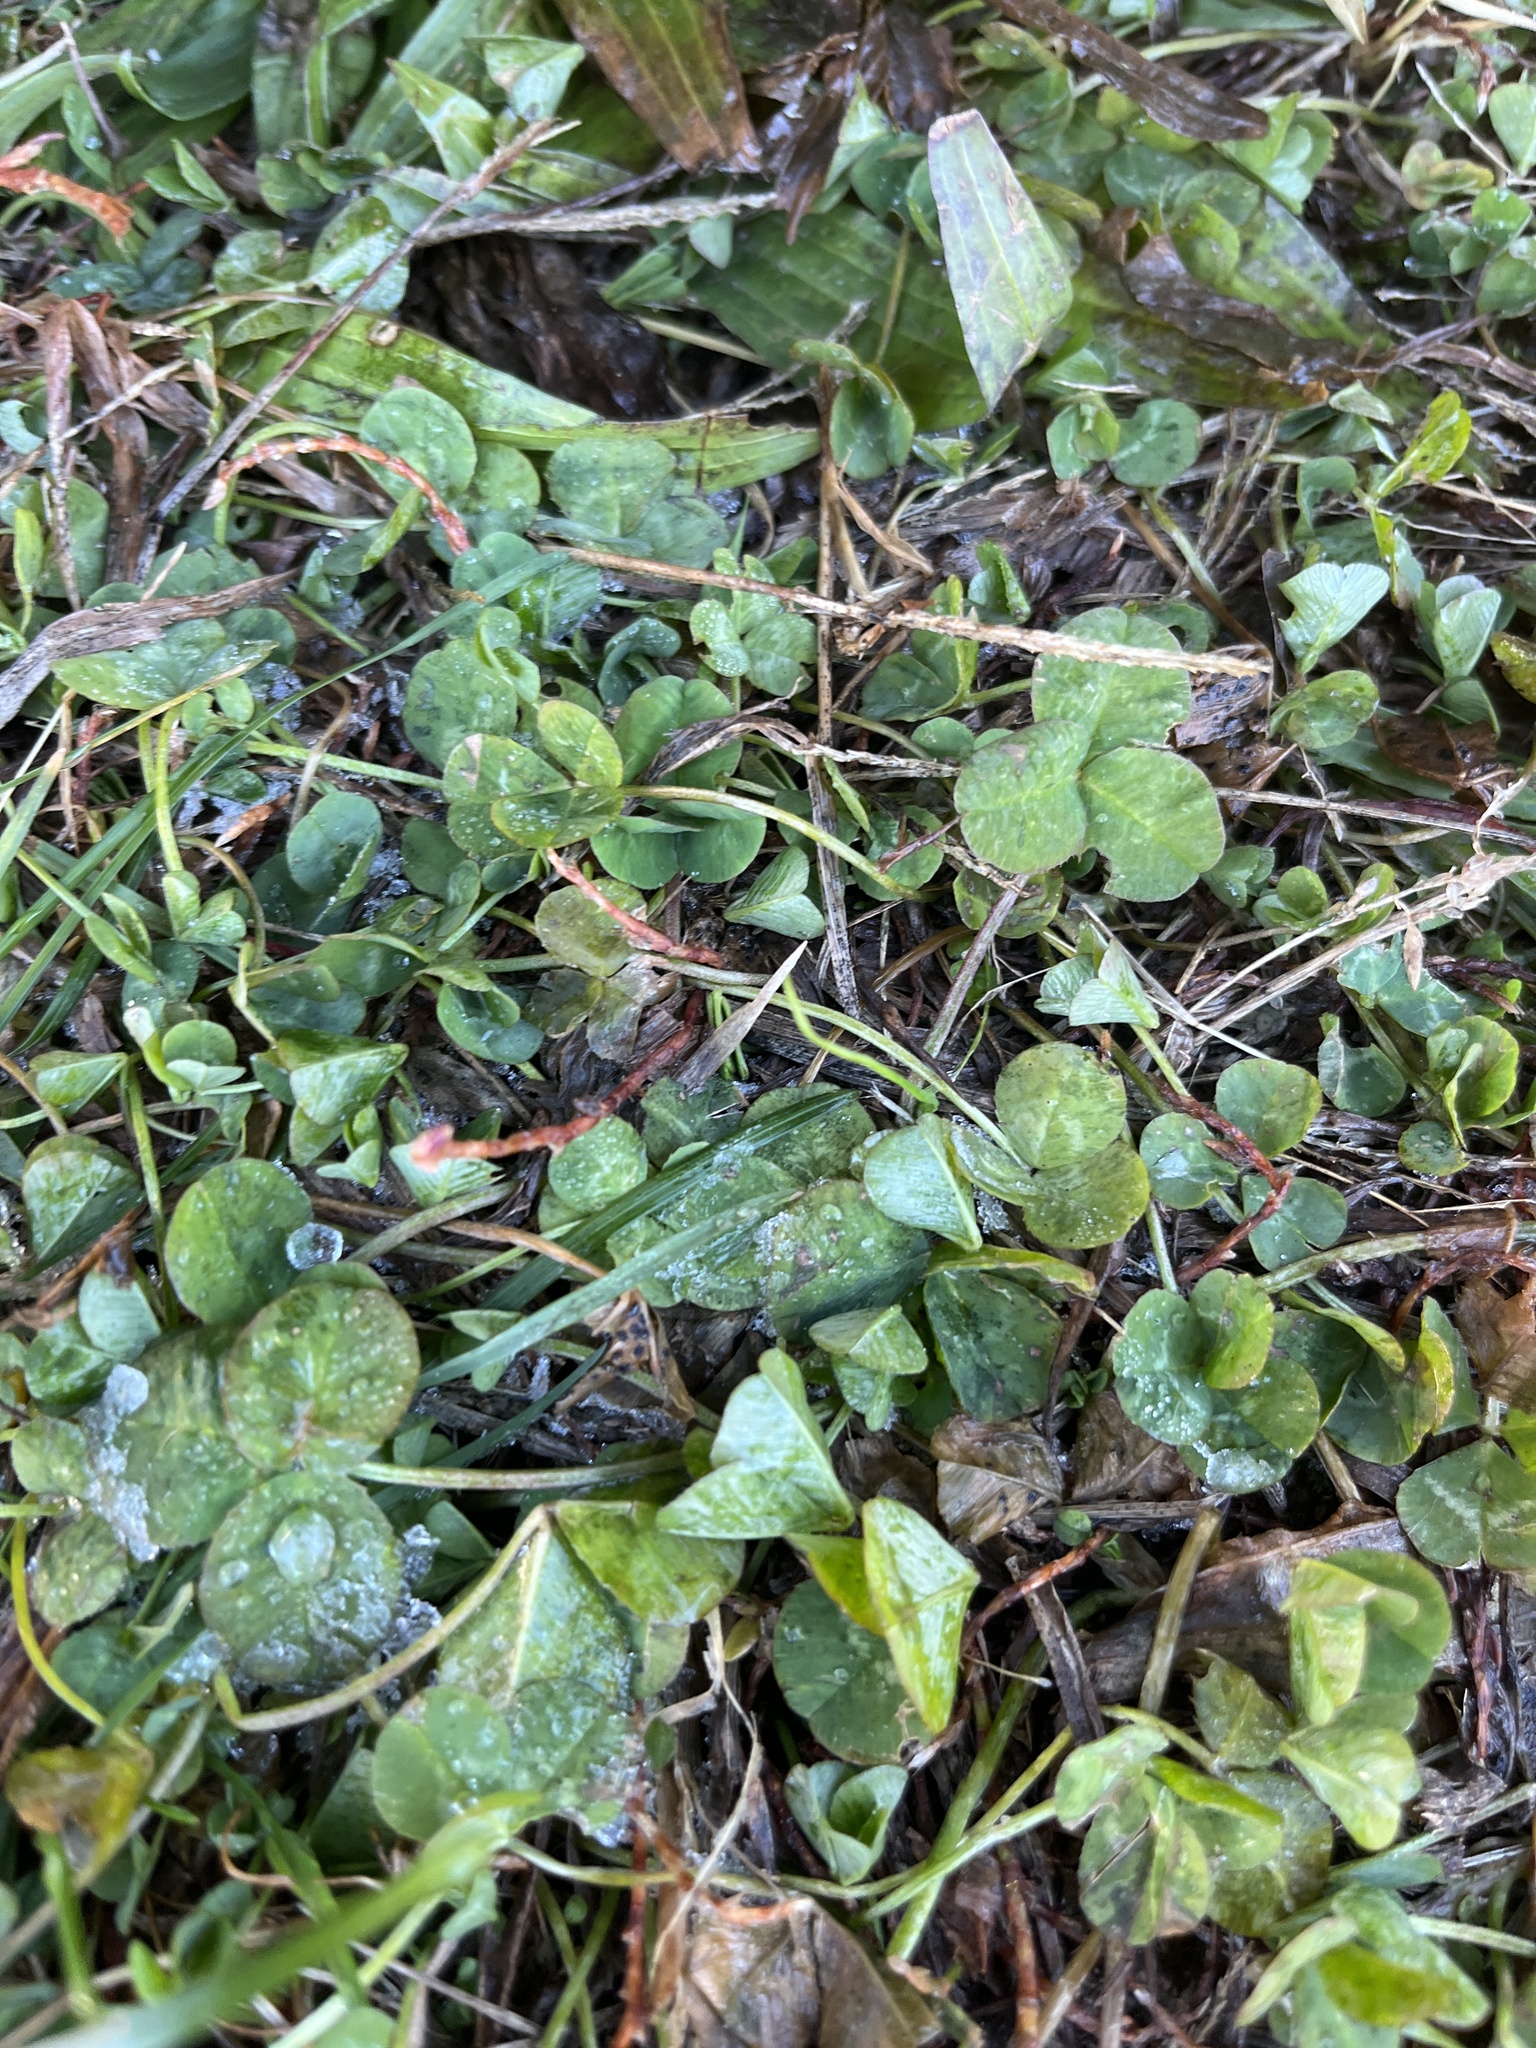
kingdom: Plantae
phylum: Tracheophyta
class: Magnoliopsida
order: Fabales
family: Fabaceae
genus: Trifolium
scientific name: Trifolium repens
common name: White clover
